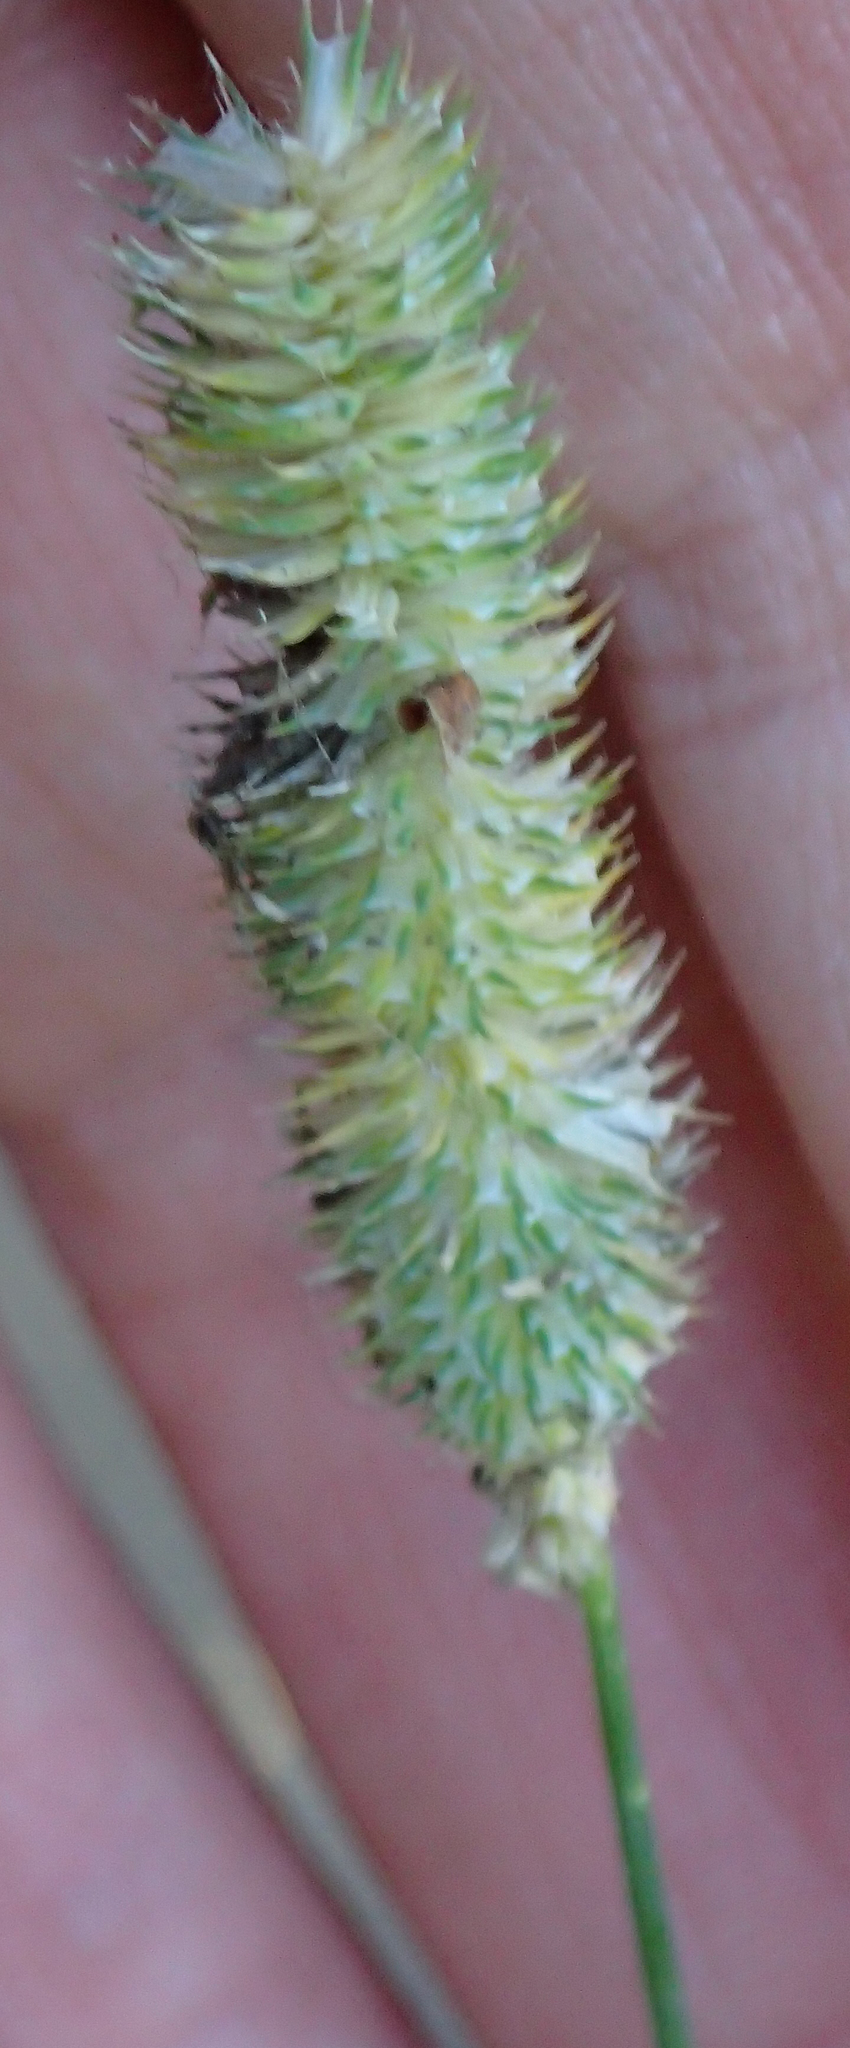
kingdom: Plantae
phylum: Tracheophyta
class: Liliopsida
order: Poales
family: Poaceae
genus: Phleum
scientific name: Phleum pratense
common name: Timothy grass
